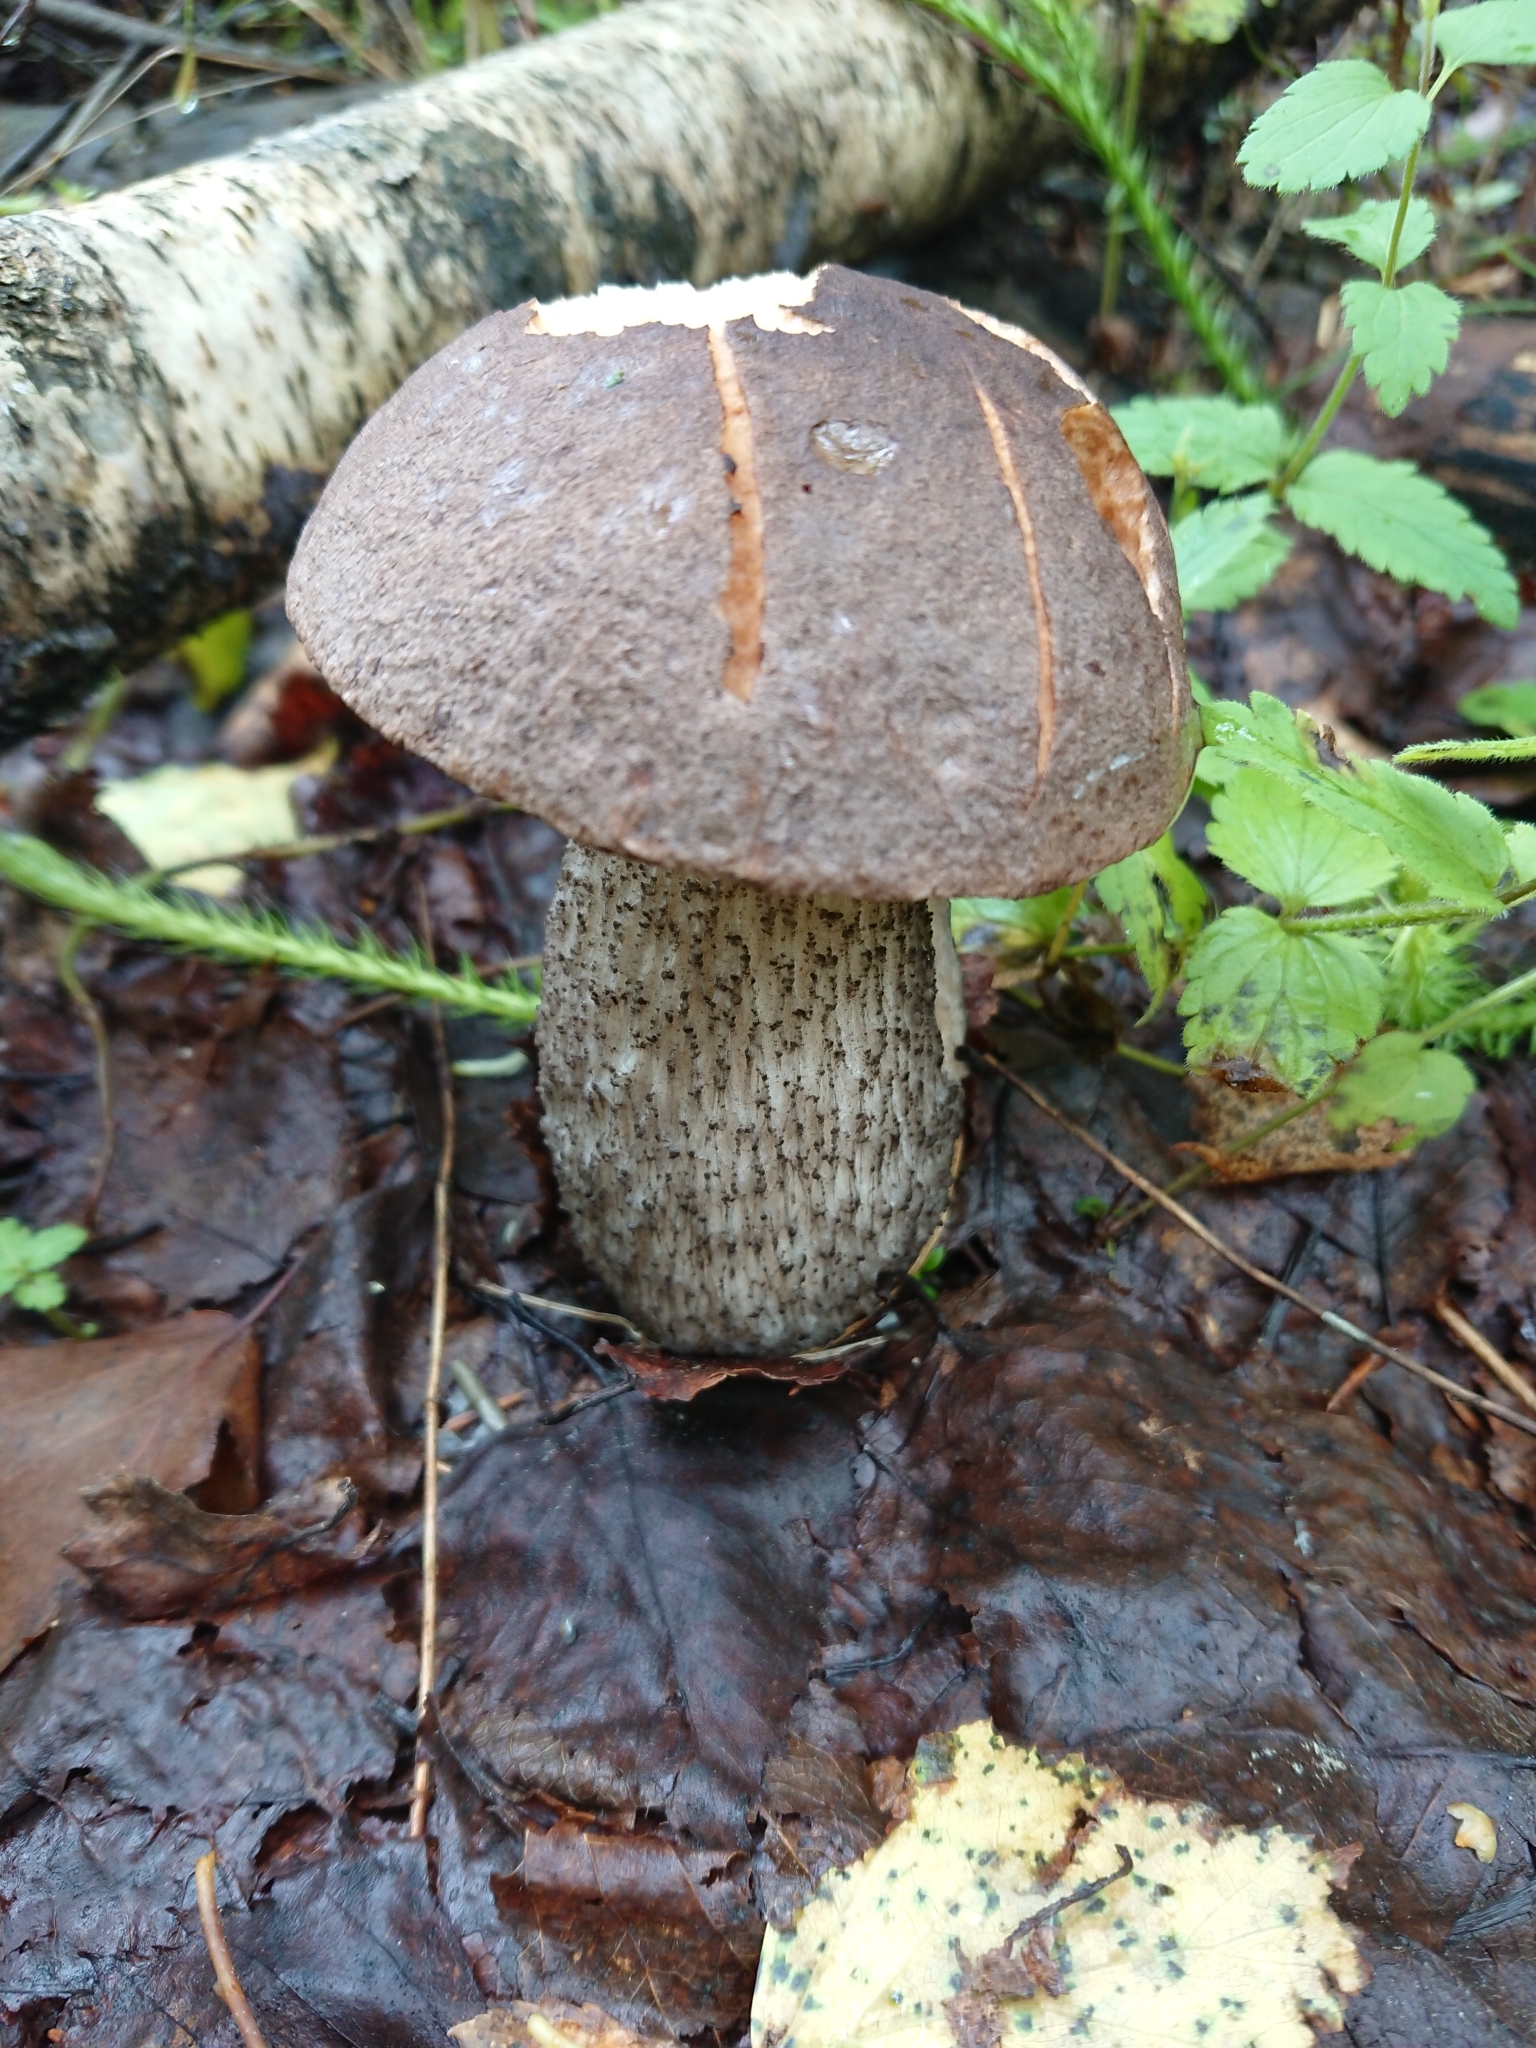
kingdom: Fungi
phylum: Basidiomycota
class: Agaricomycetes
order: Boletales
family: Boletaceae
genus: Leccinum
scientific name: Leccinum scabrum
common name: Blushing bolete
